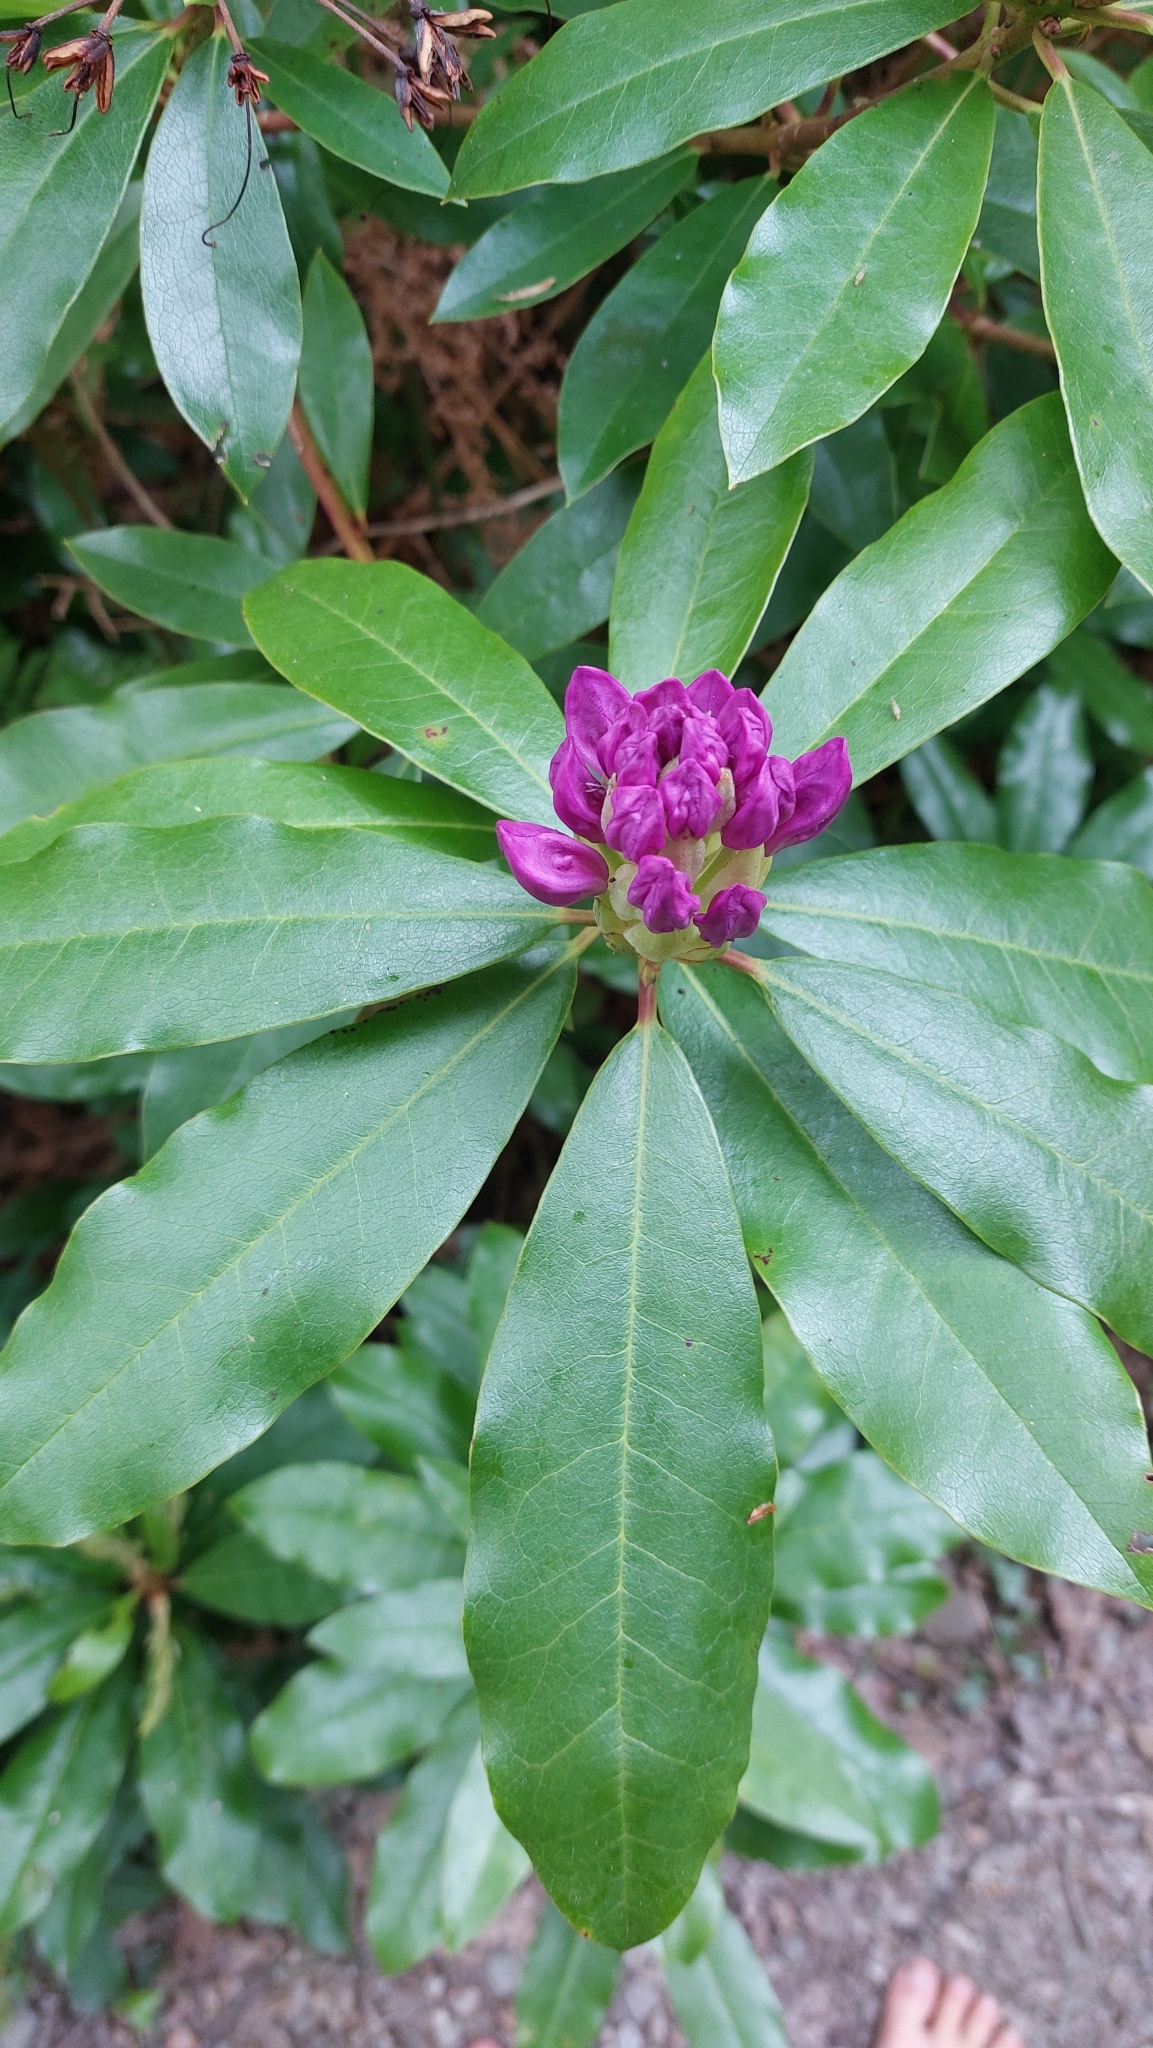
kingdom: Plantae
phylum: Tracheophyta
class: Magnoliopsida
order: Ericales
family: Ericaceae
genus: Rhododendron
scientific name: Rhododendron ponticum
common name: Rhododendron
